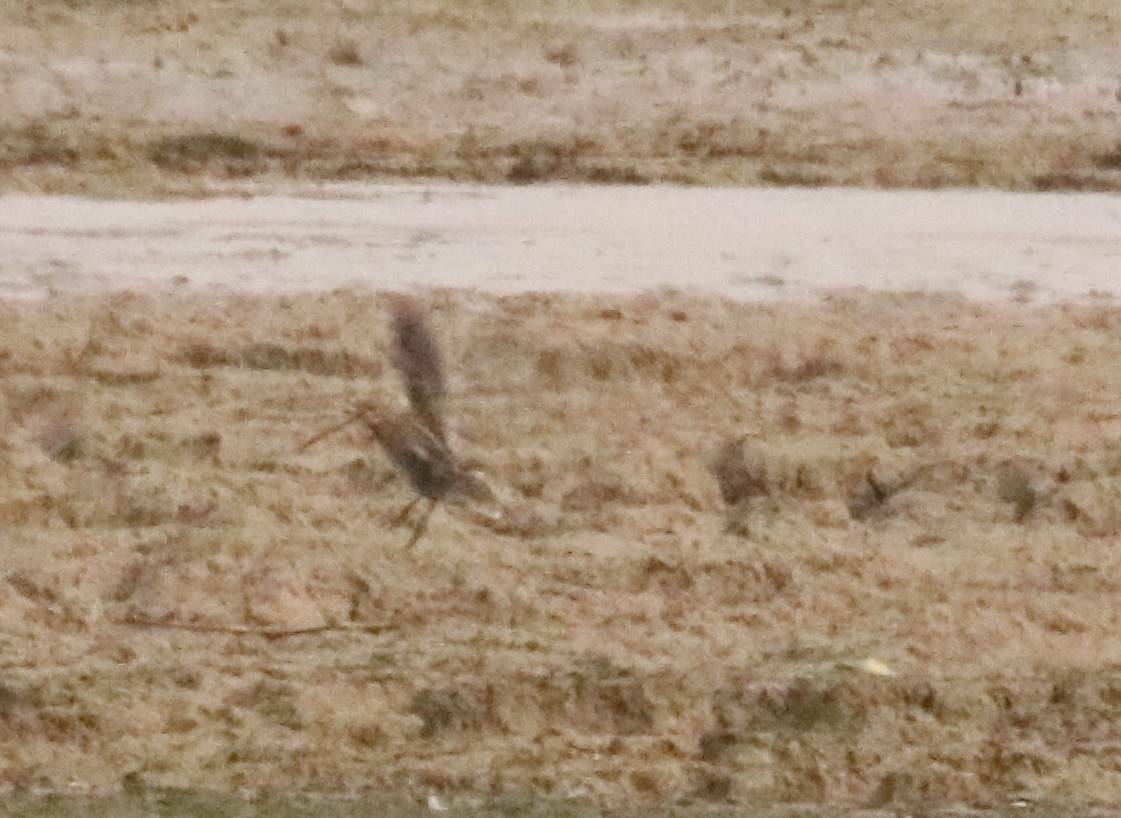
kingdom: Animalia
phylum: Chordata
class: Aves
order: Charadriiformes
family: Scolopacidae
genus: Gallinago
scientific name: Gallinago gallinago
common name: Common snipe
